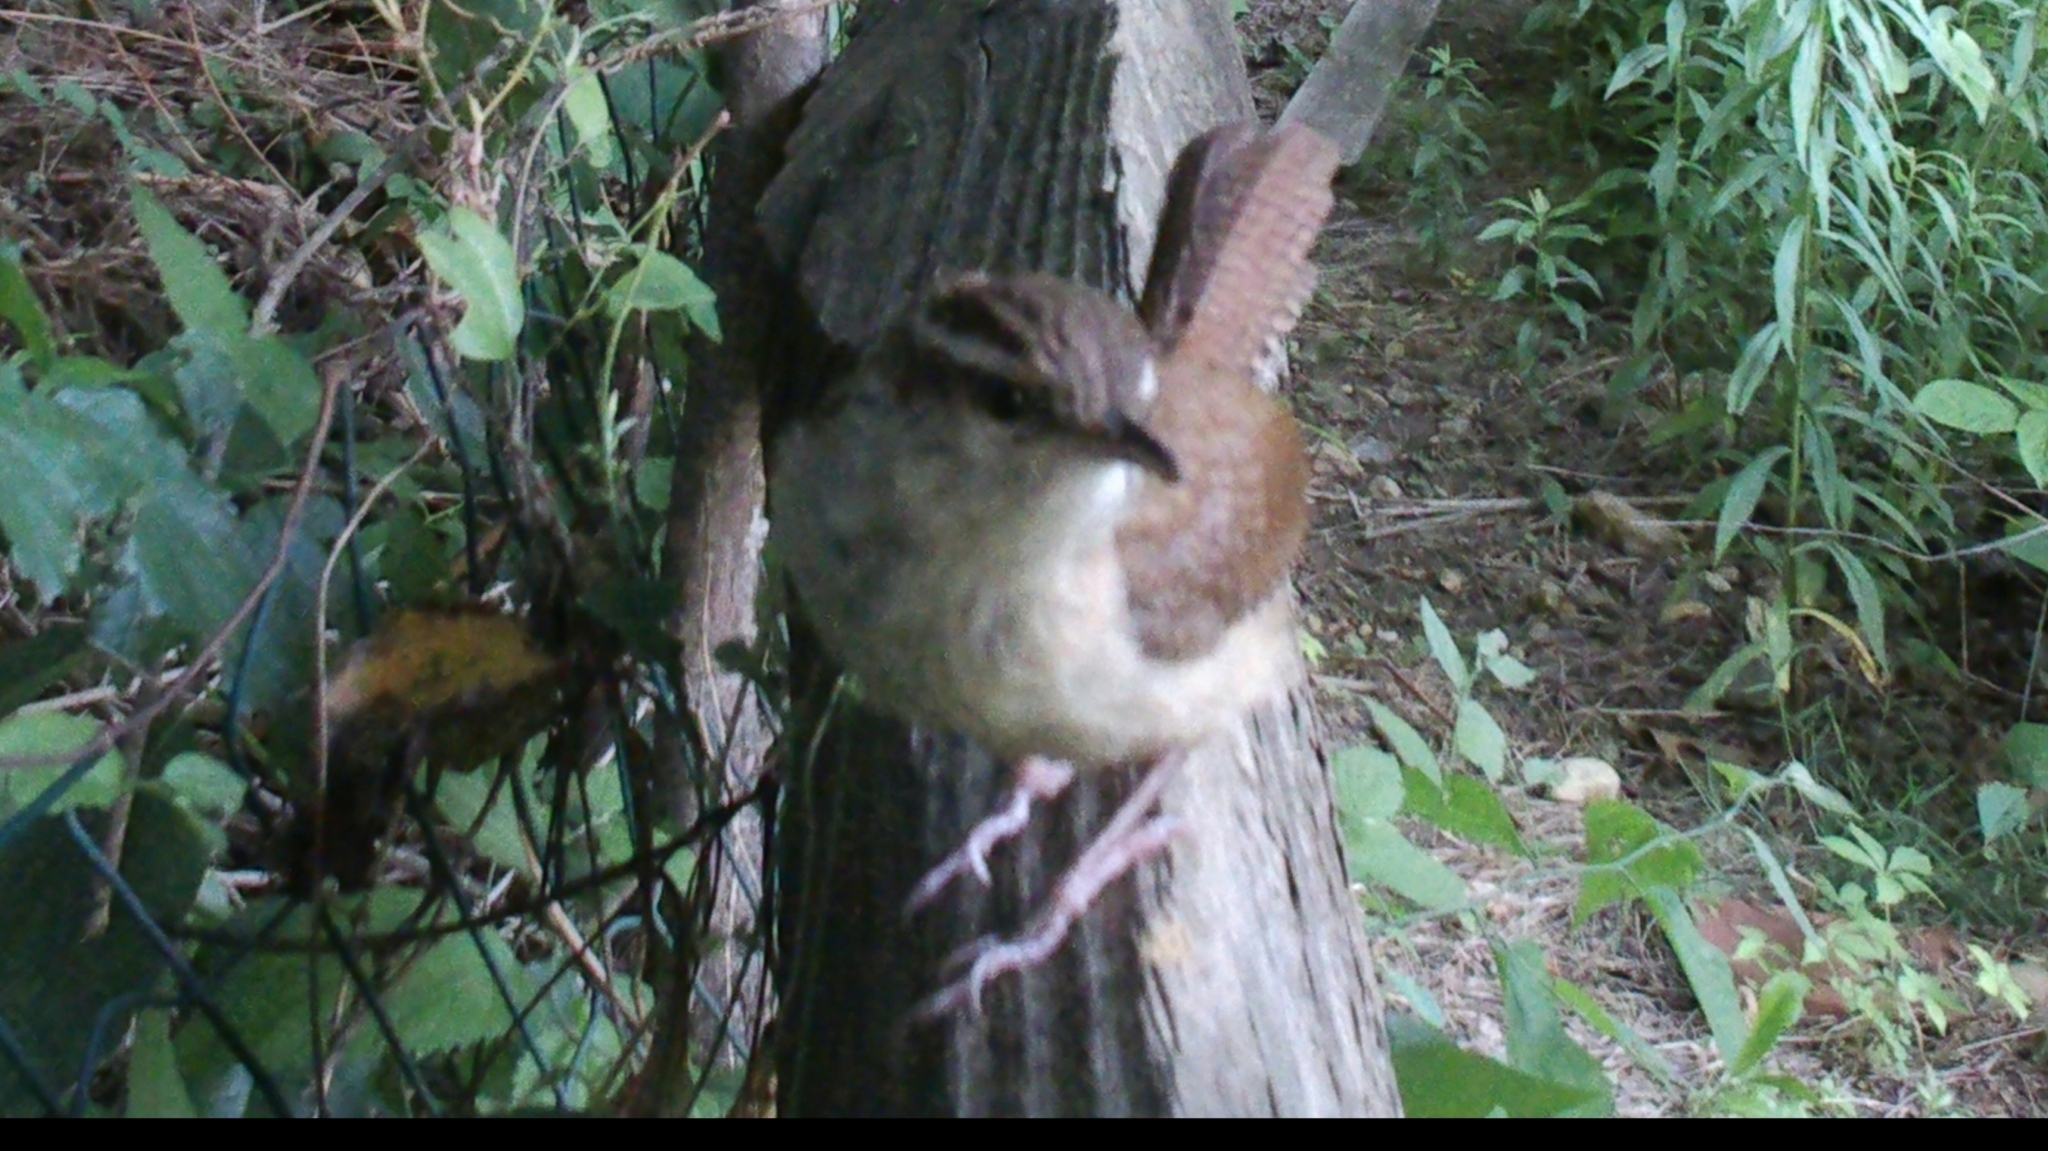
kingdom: Animalia
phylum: Chordata
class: Aves
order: Passeriformes
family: Troglodytidae
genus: Thryothorus
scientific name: Thryothorus ludovicianus
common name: Carolina wren
